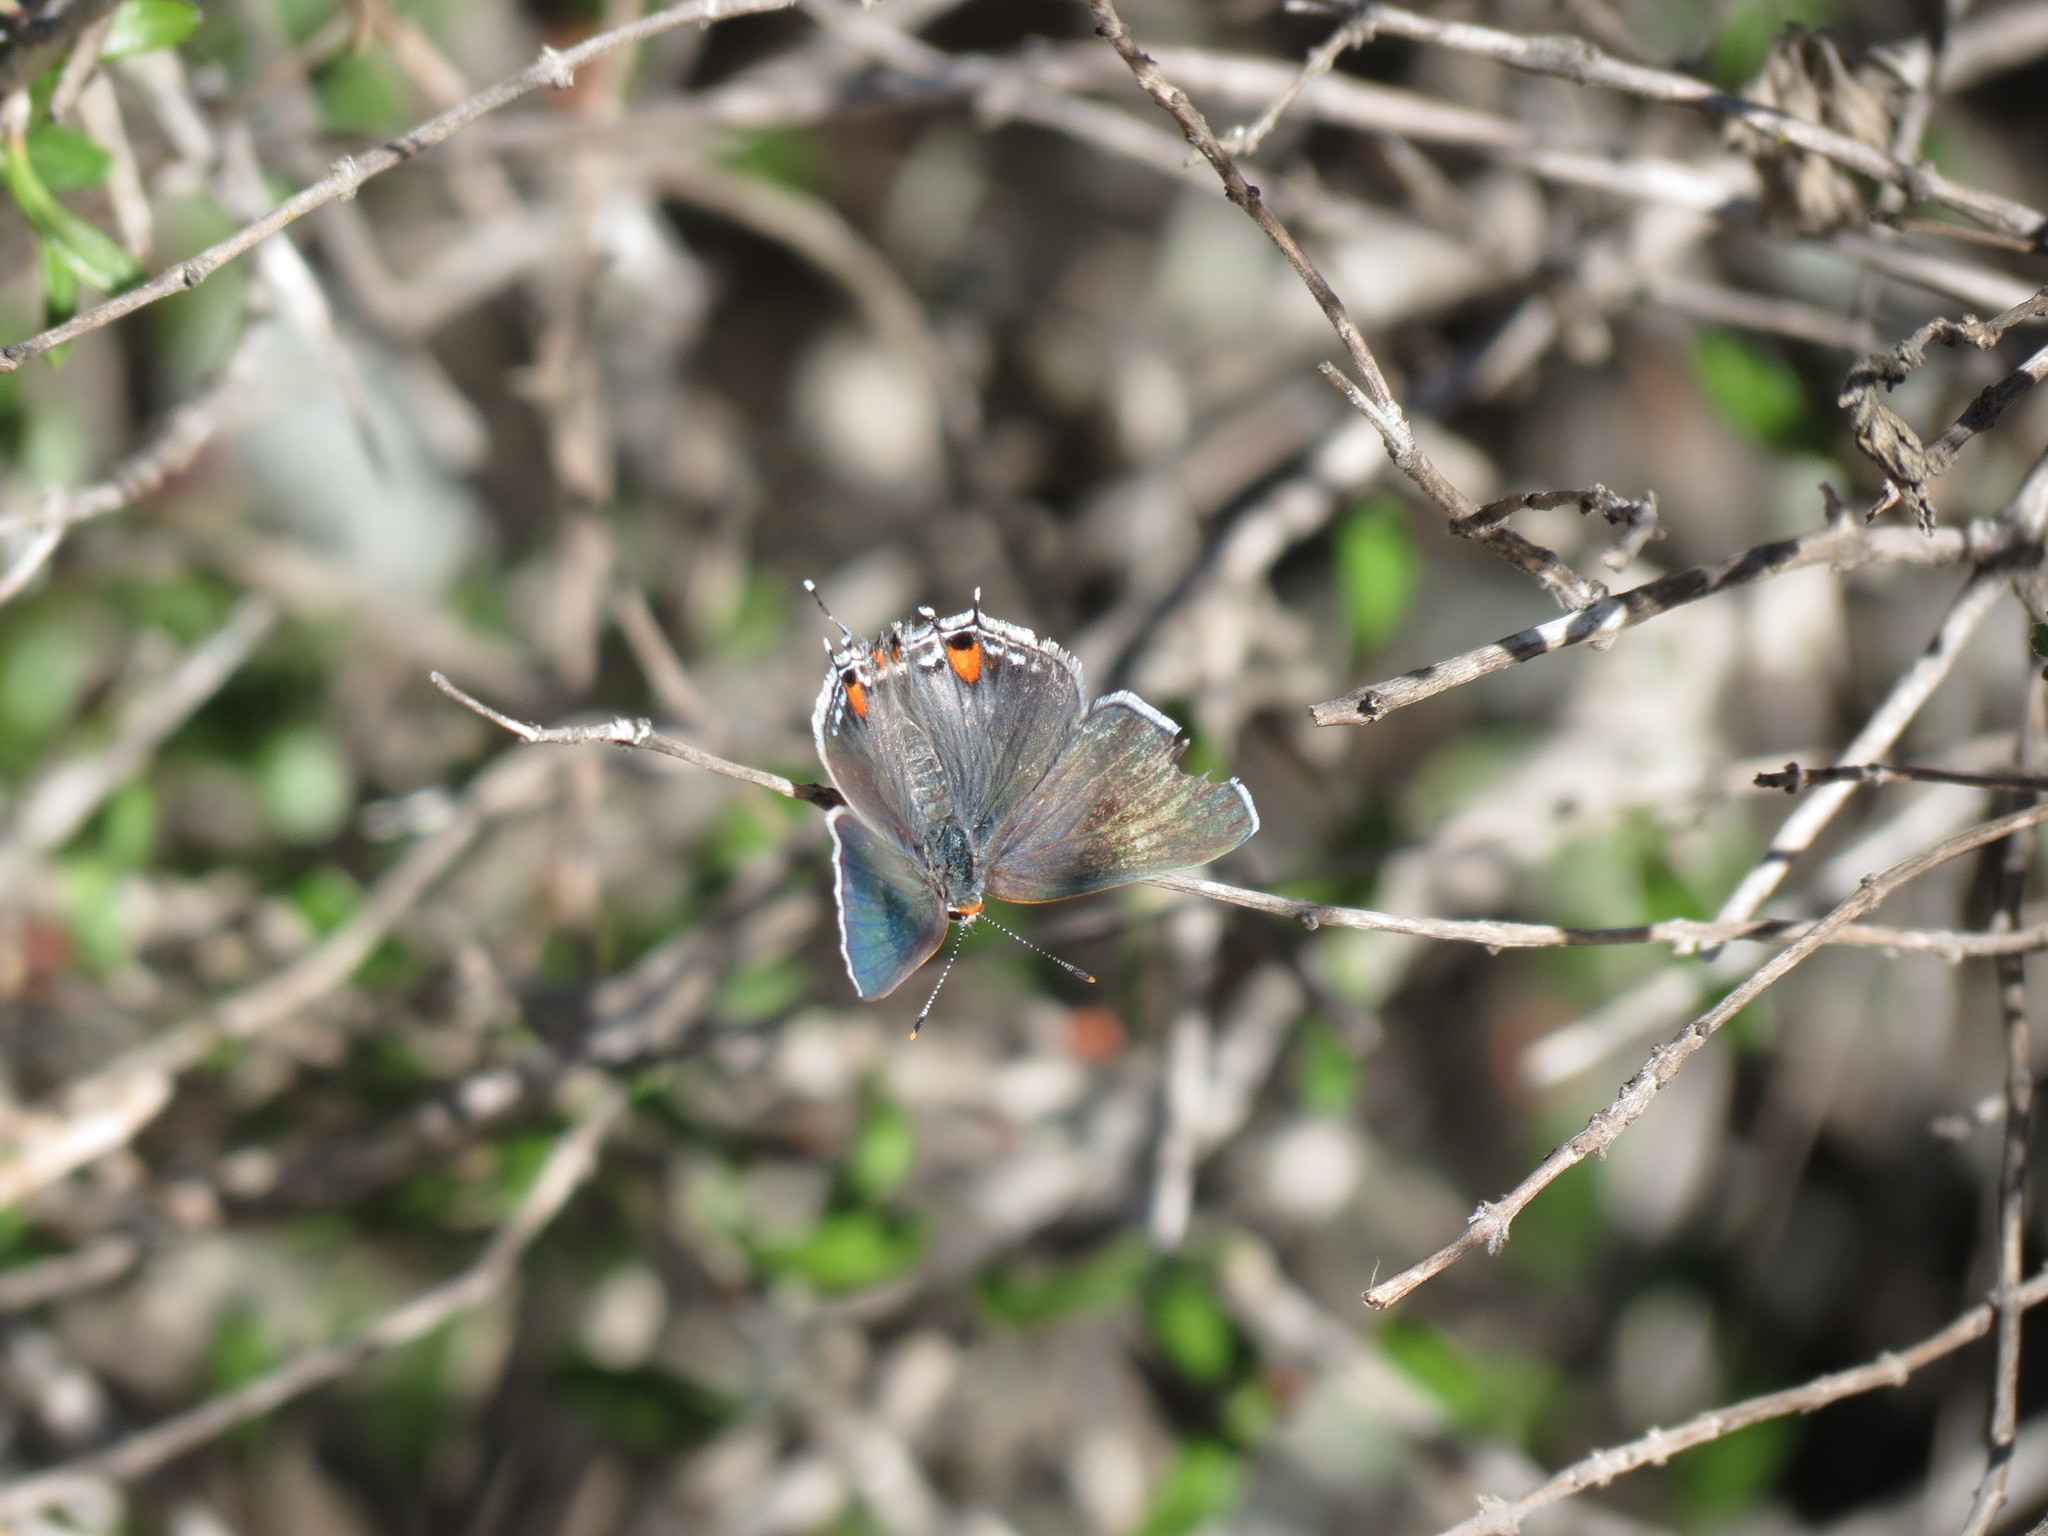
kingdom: Animalia
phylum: Arthropoda
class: Insecta
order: Lepidoptera
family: Lycaenidae
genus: Strymon
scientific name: Strymon melinus
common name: Gray hairstreak
